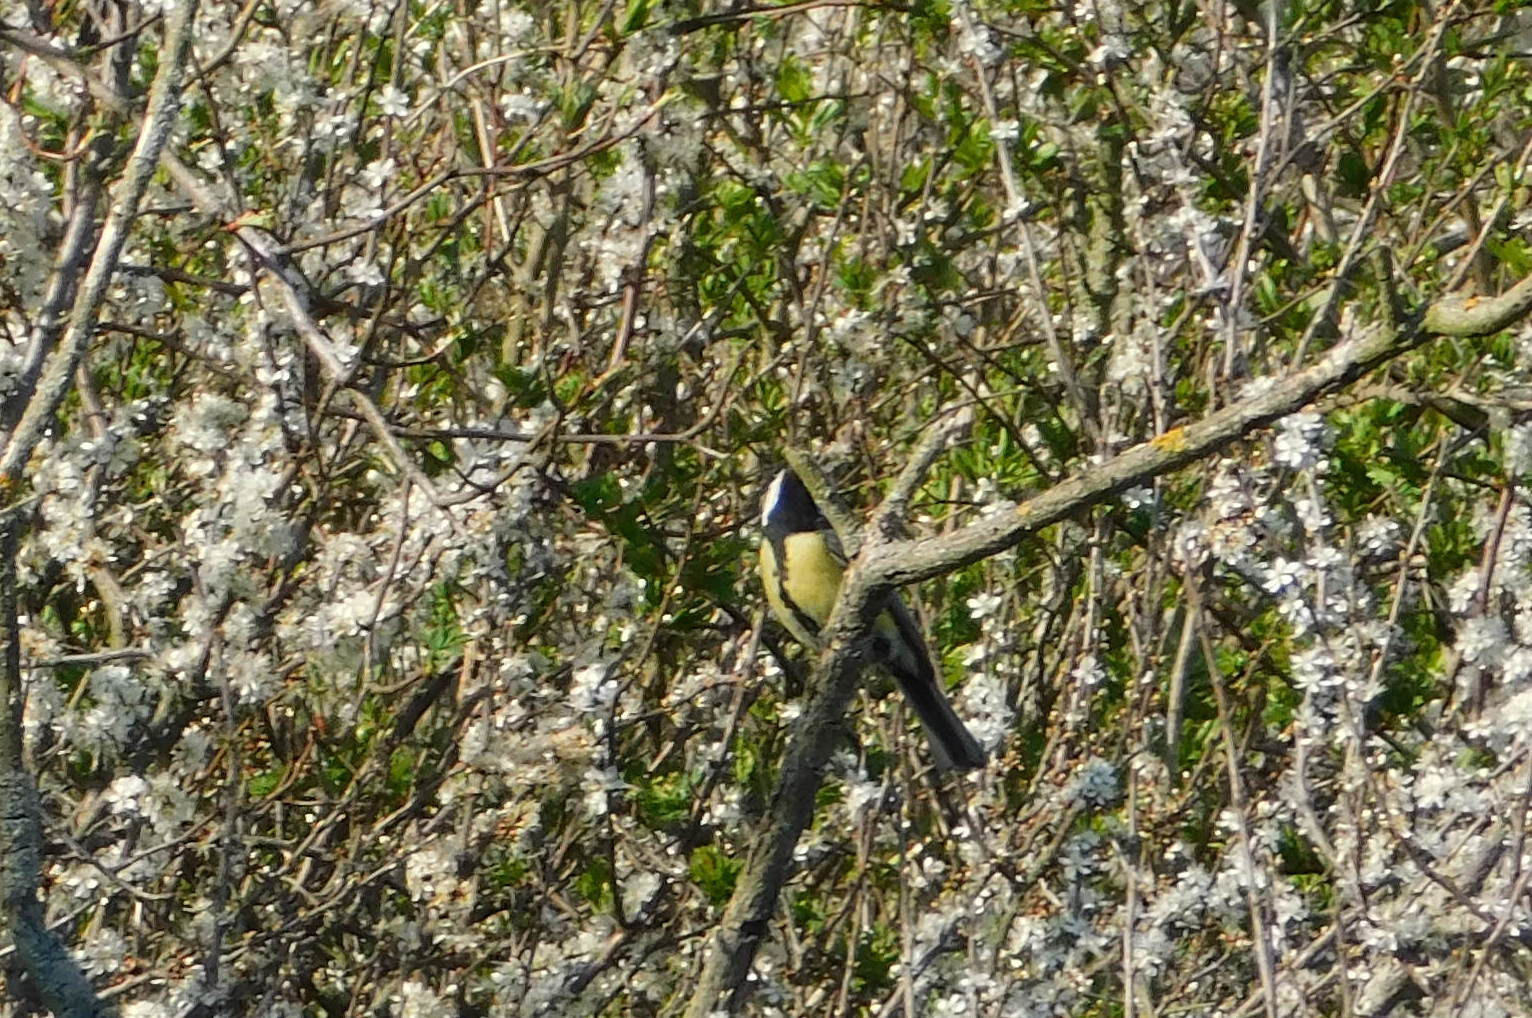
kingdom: Animalia
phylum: Chordata
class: Aves
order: Passeriformes
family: Paridae
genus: Parus
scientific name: Parus major
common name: Great tit
